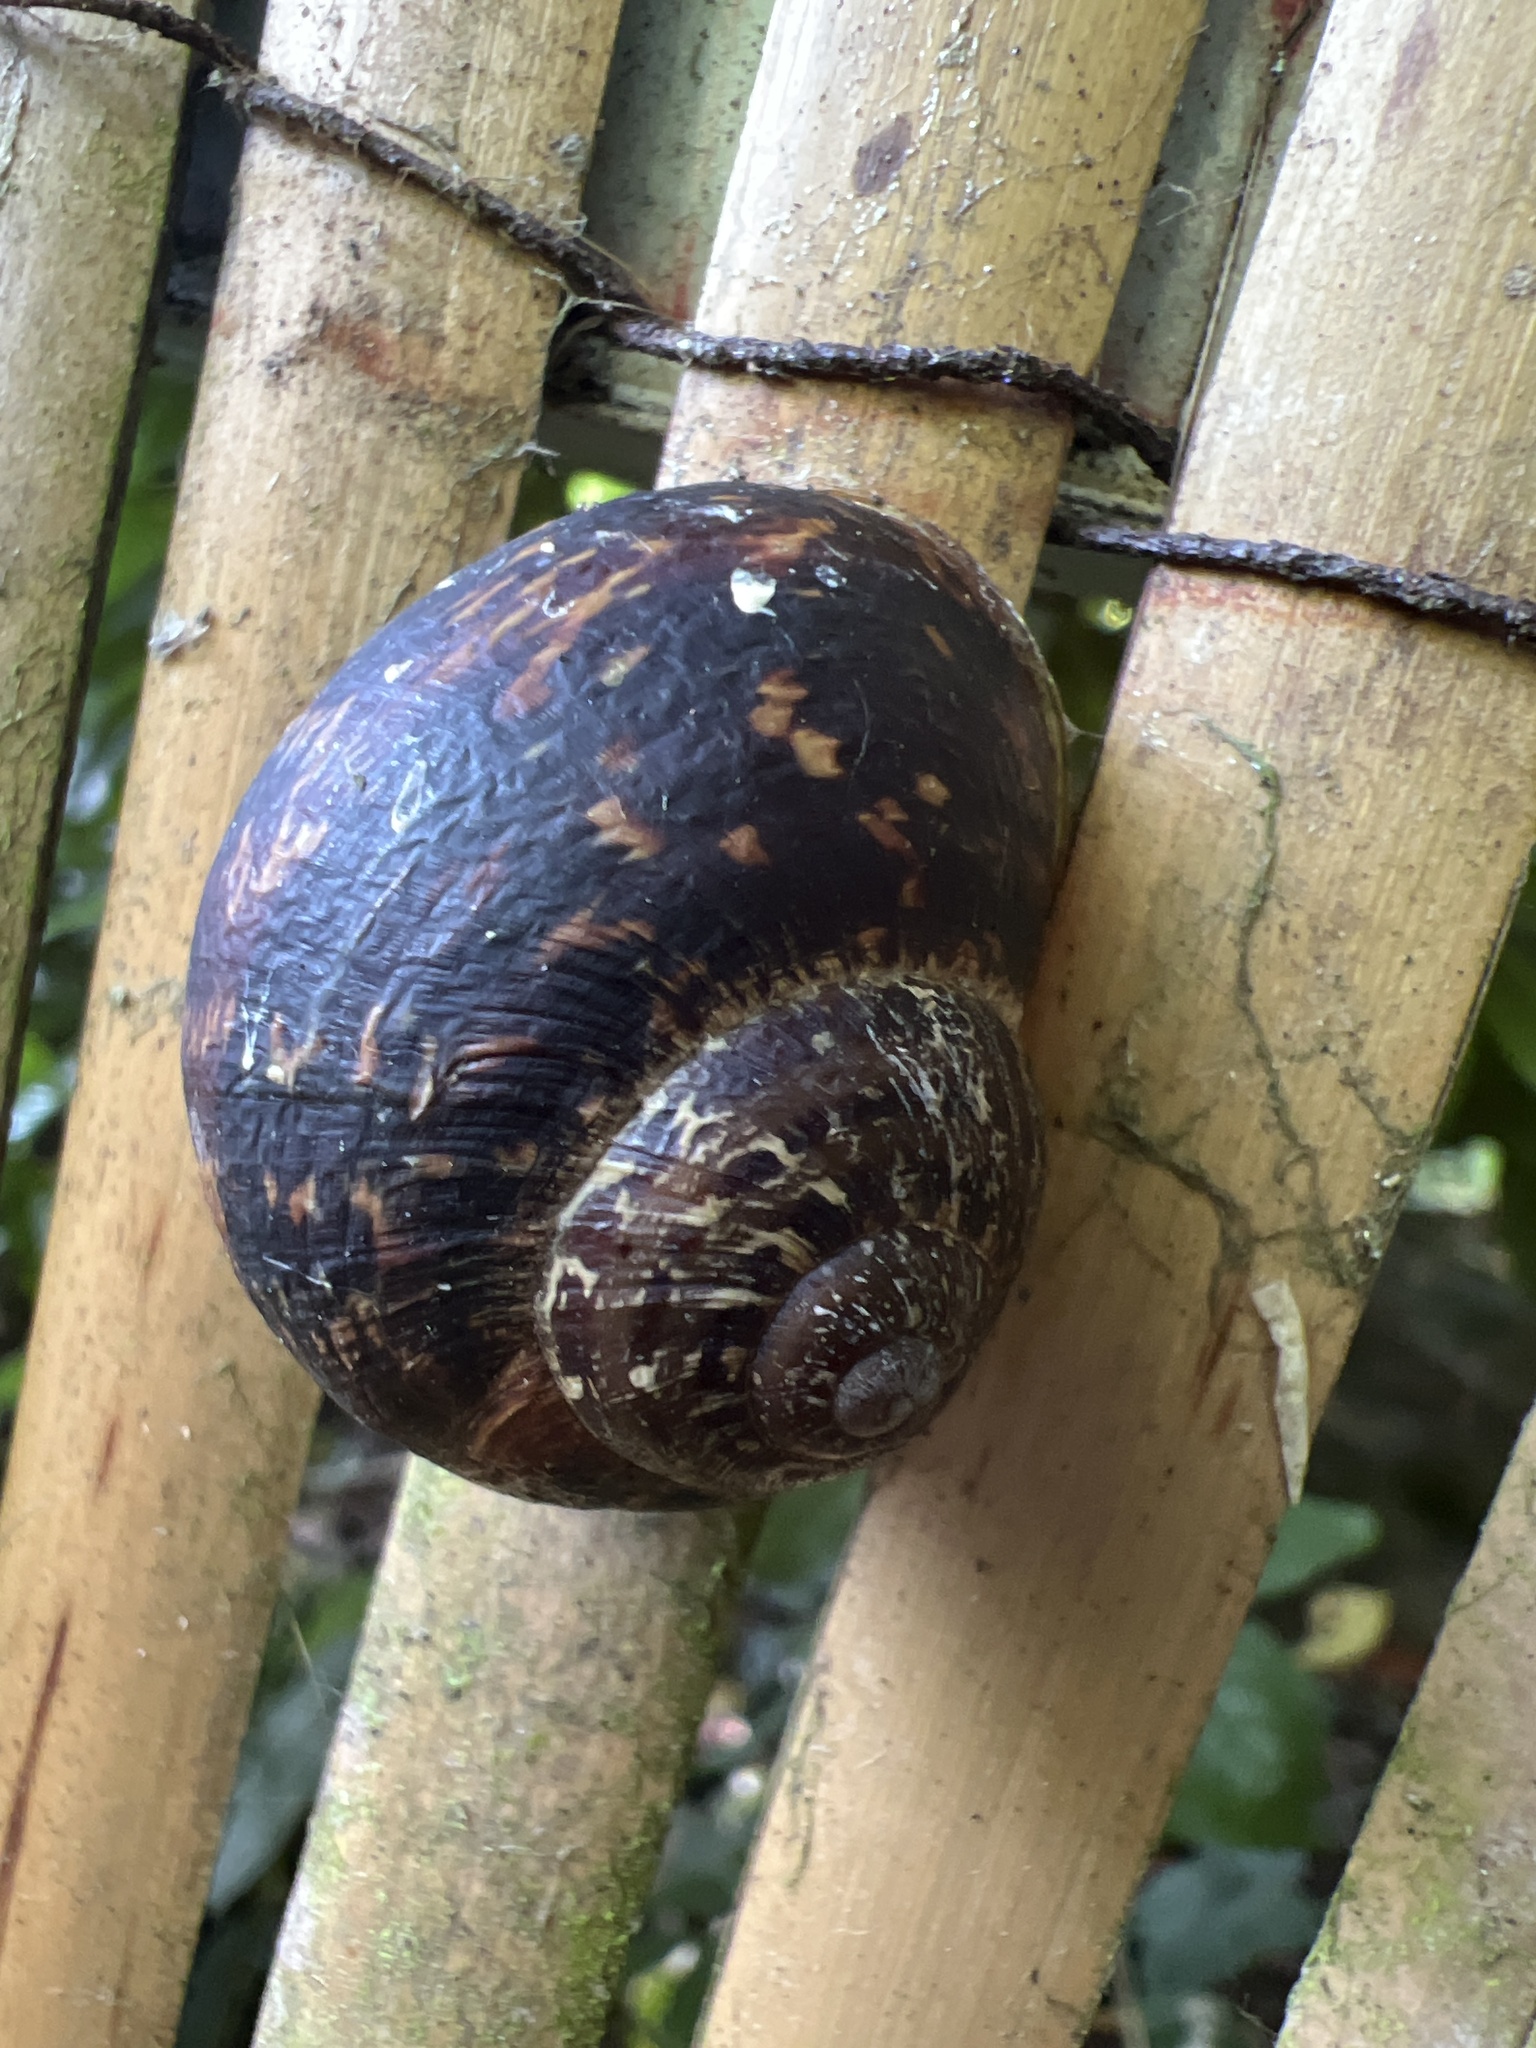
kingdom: Animalia
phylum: Mollusca
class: Gastropoda
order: Stylommatophora
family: Helicidae
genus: Cornu
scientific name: Cornu aspersum
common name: Brown garden snail
